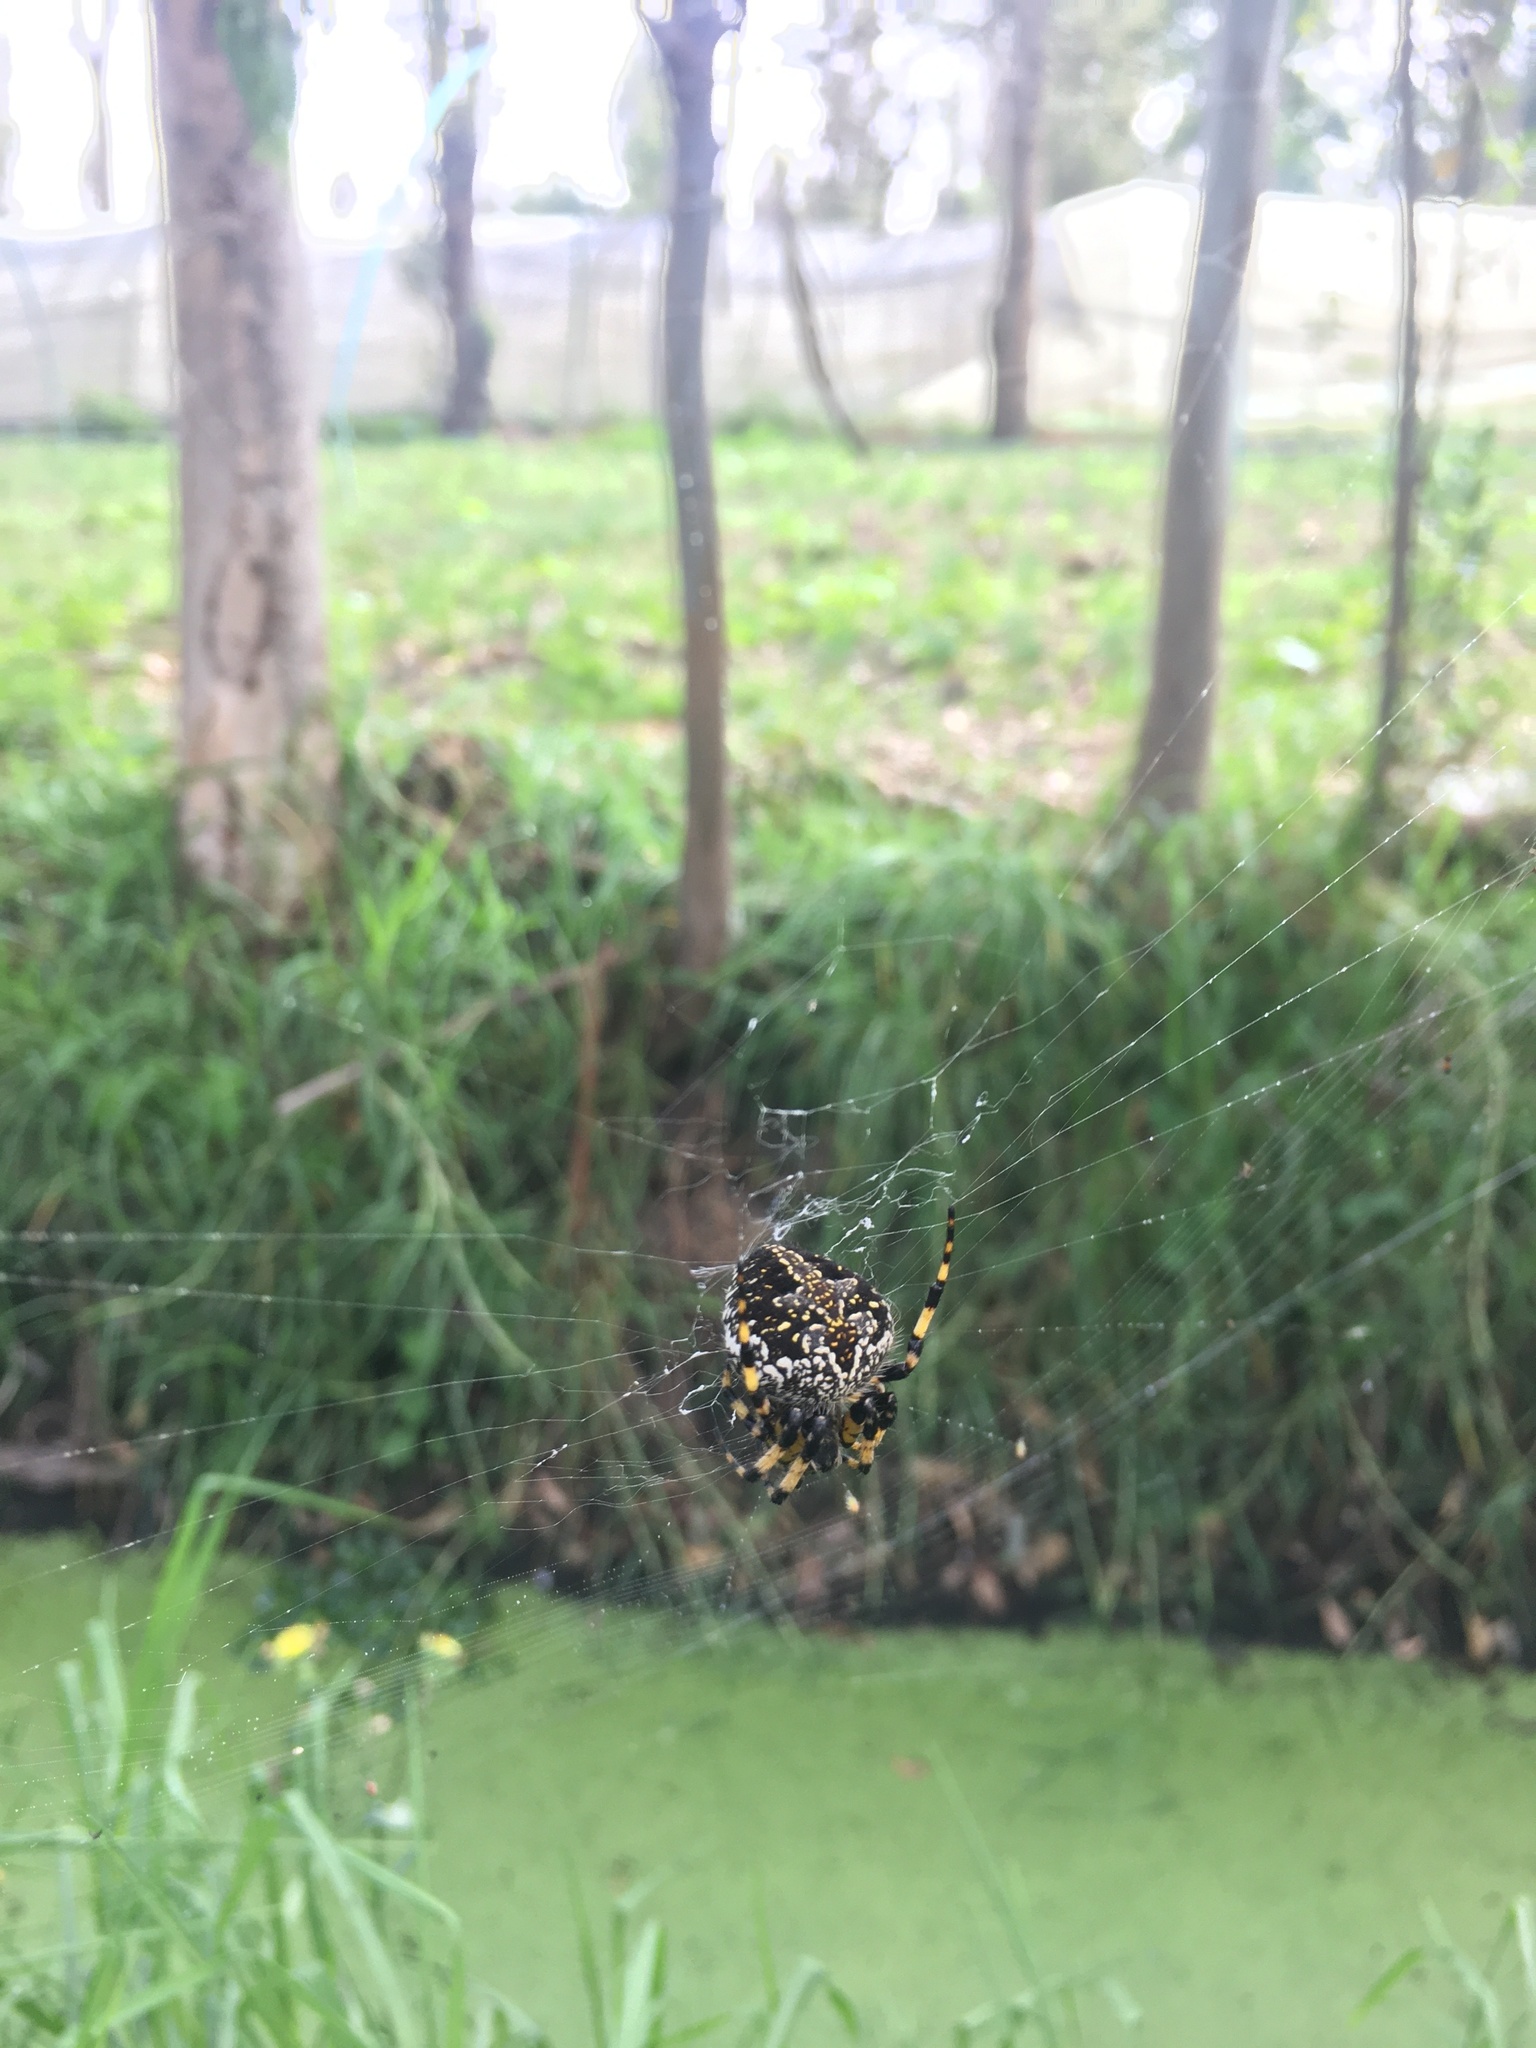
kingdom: Animalia
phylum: Arthropoda
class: Arachnida
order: Araneae
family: Araneidae
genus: Neoscona
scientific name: Neoscona orizabensis
